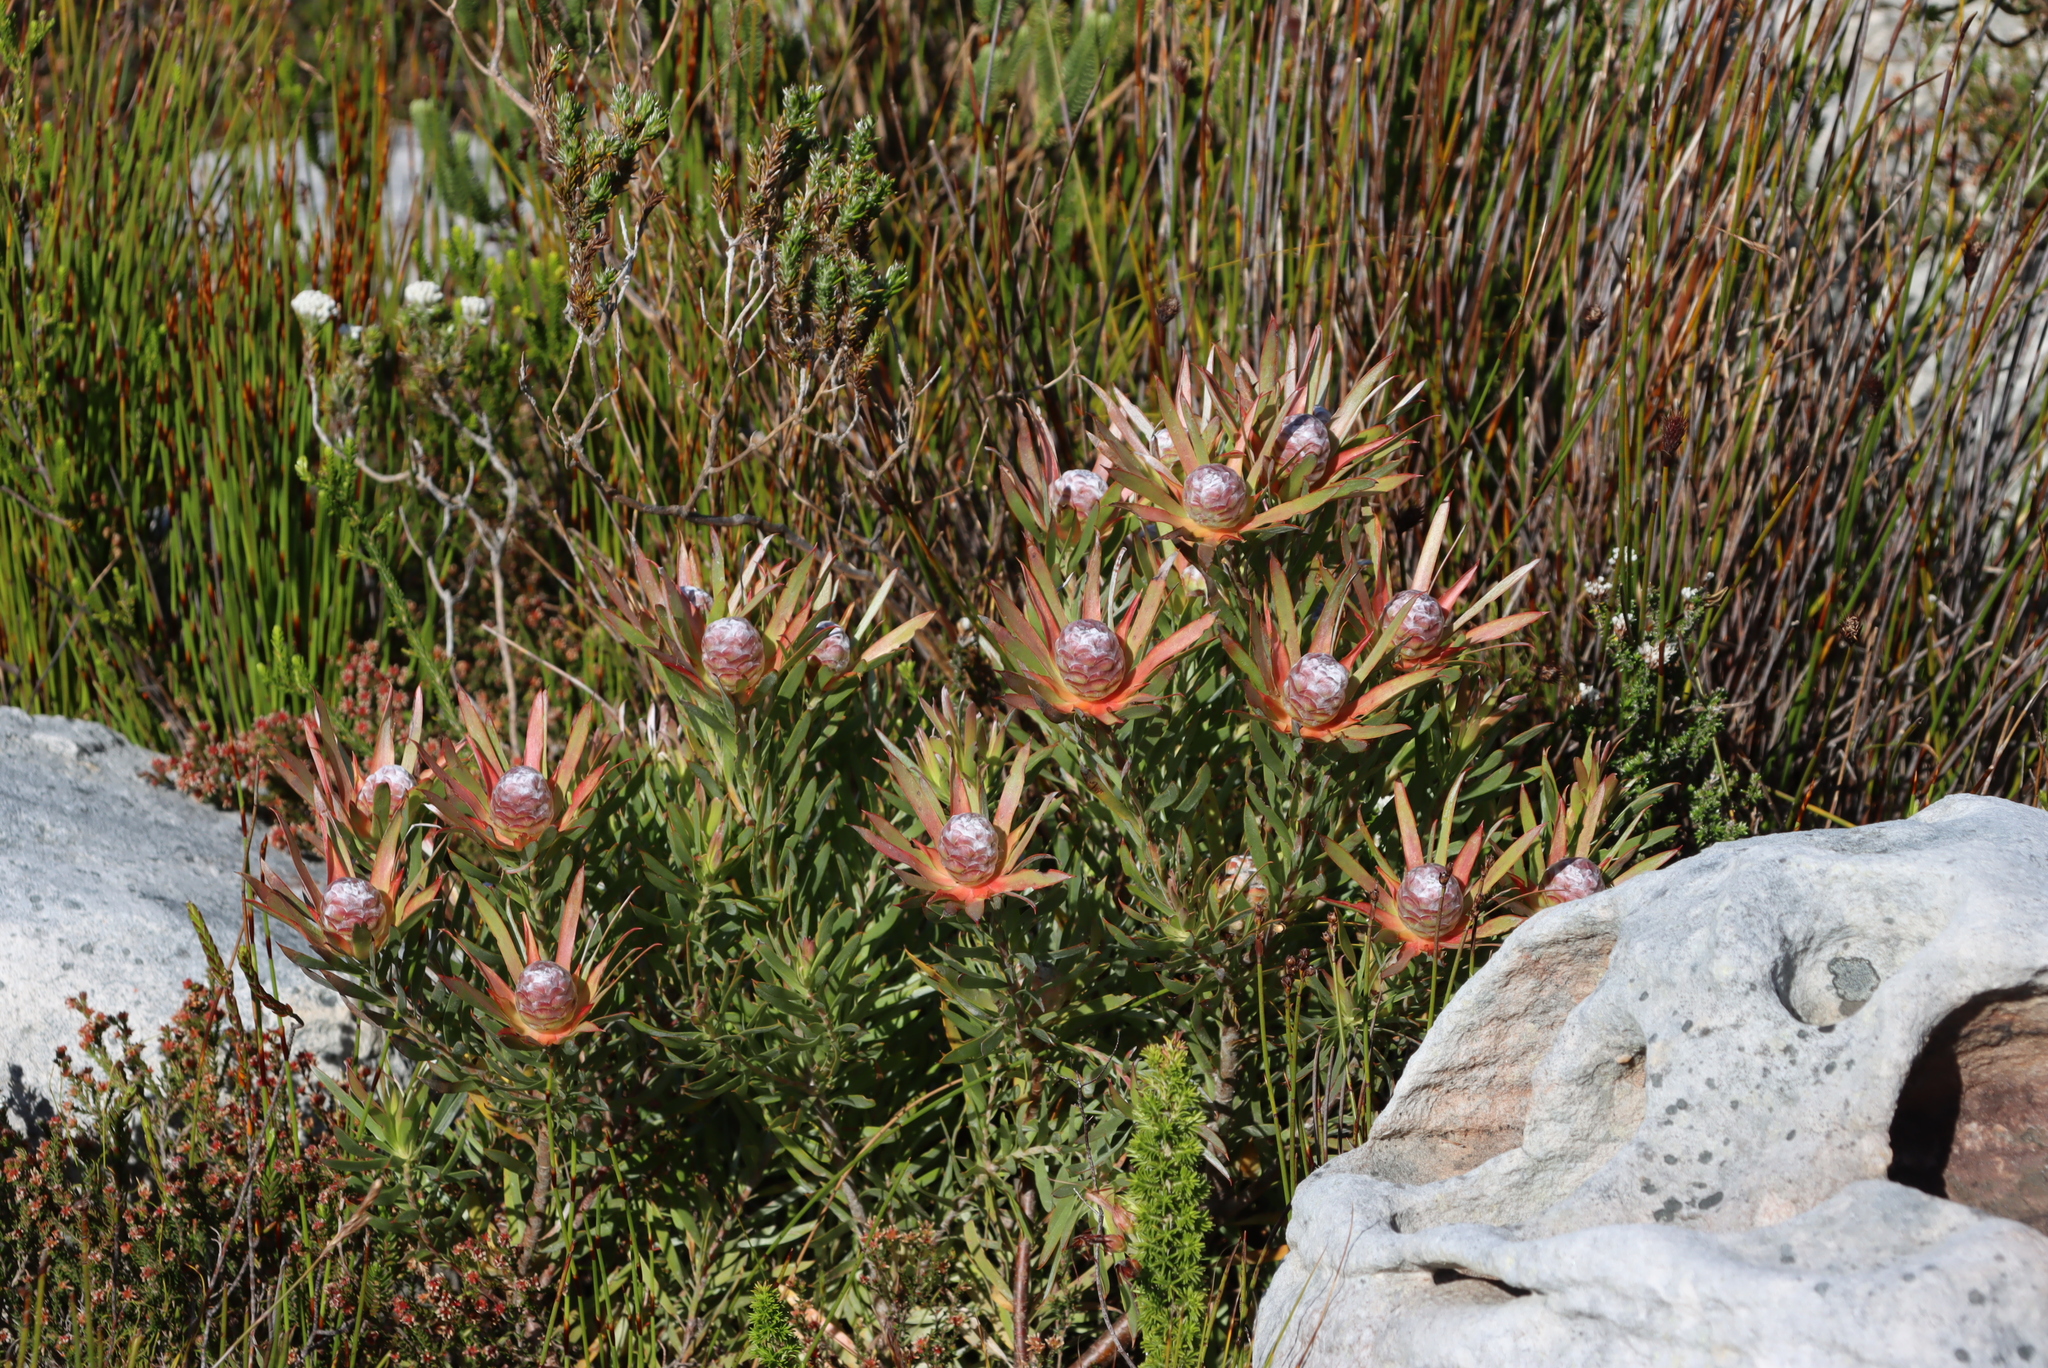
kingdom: Plantae
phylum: Tracheophyta
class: Magnoliopsida
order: Proteales
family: Proteaceae
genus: Leucadendron
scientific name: Leucadendron xanthoconus
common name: Sickle-leaf conebush
